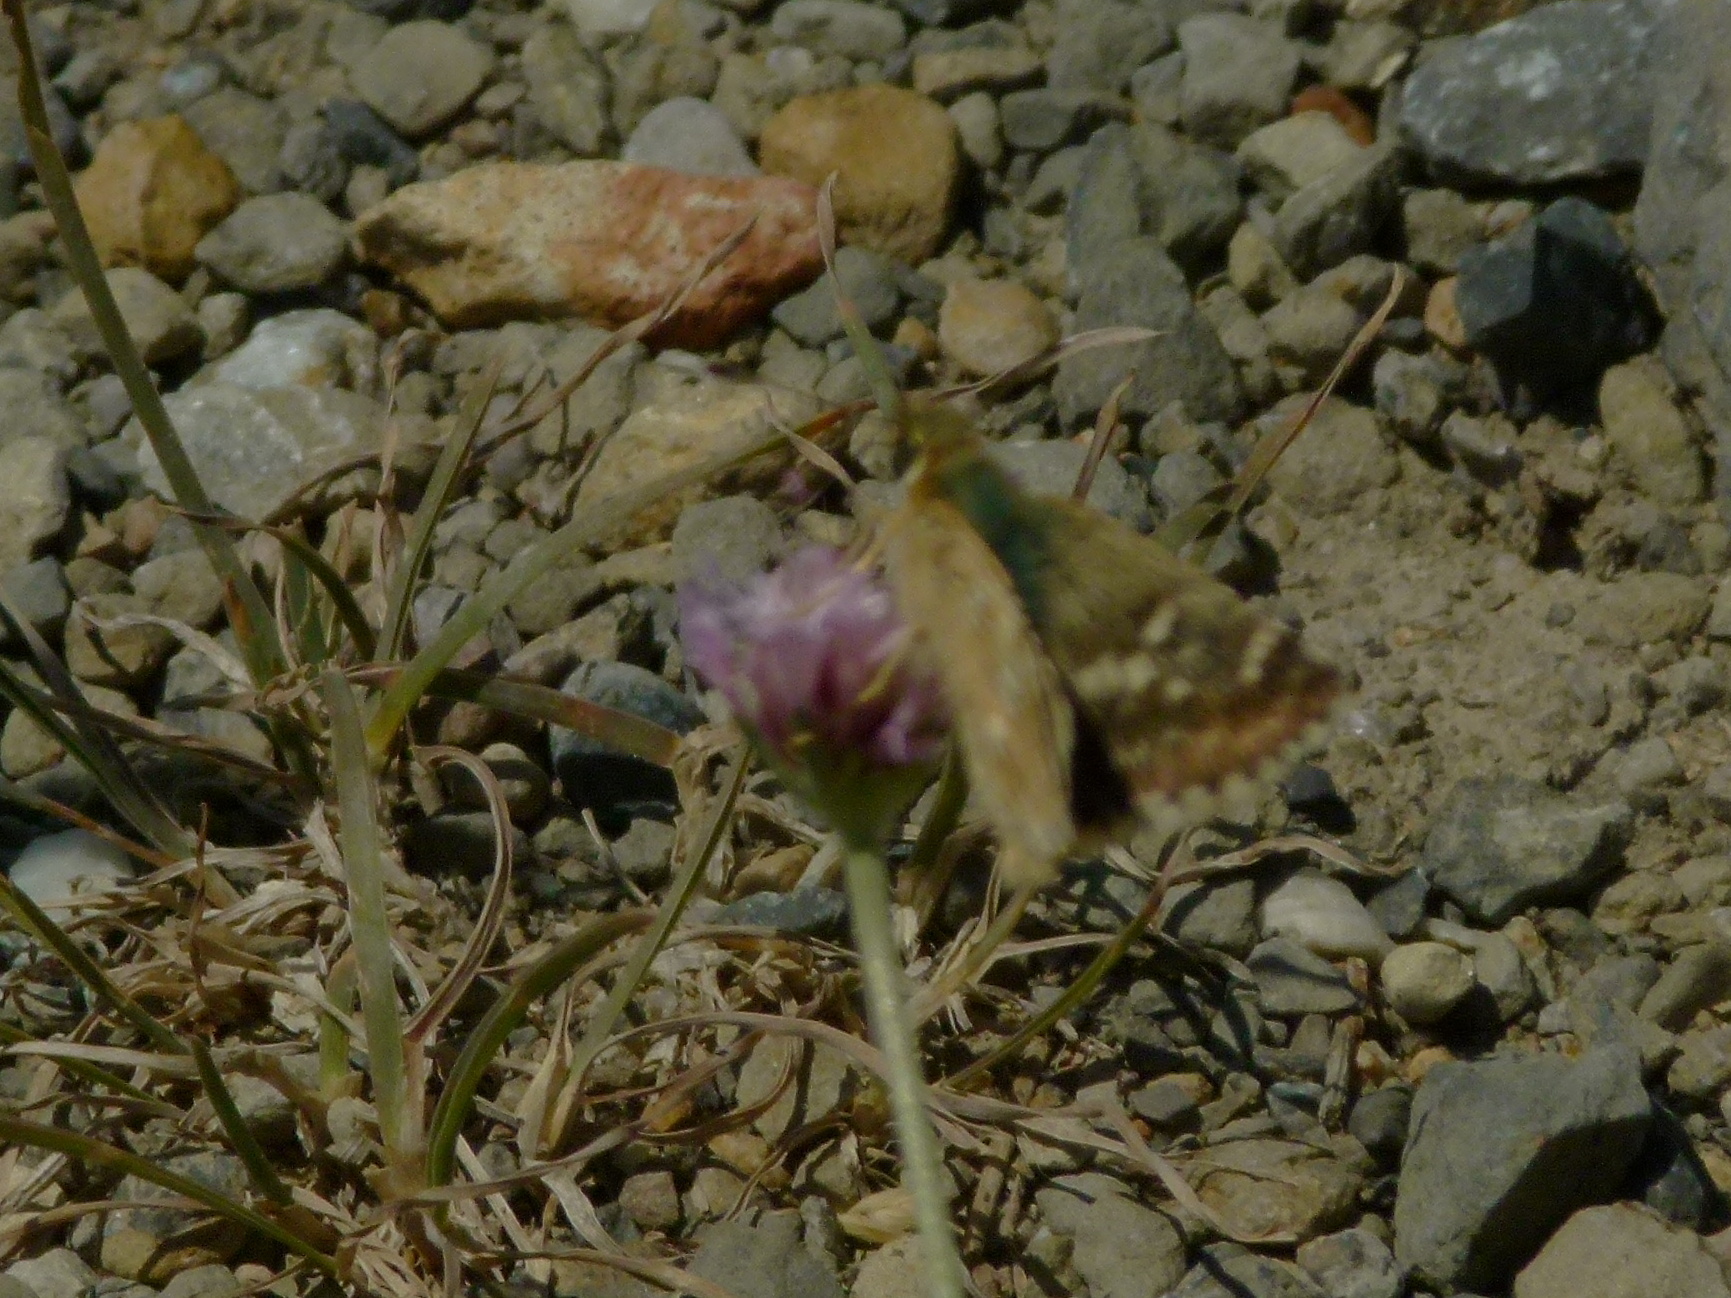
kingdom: Animalia
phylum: Arthropoda
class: Insecta
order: Lepidoptera
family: Hesperiidae
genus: Syrichtus
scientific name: Syrichtus Muschampia proto
